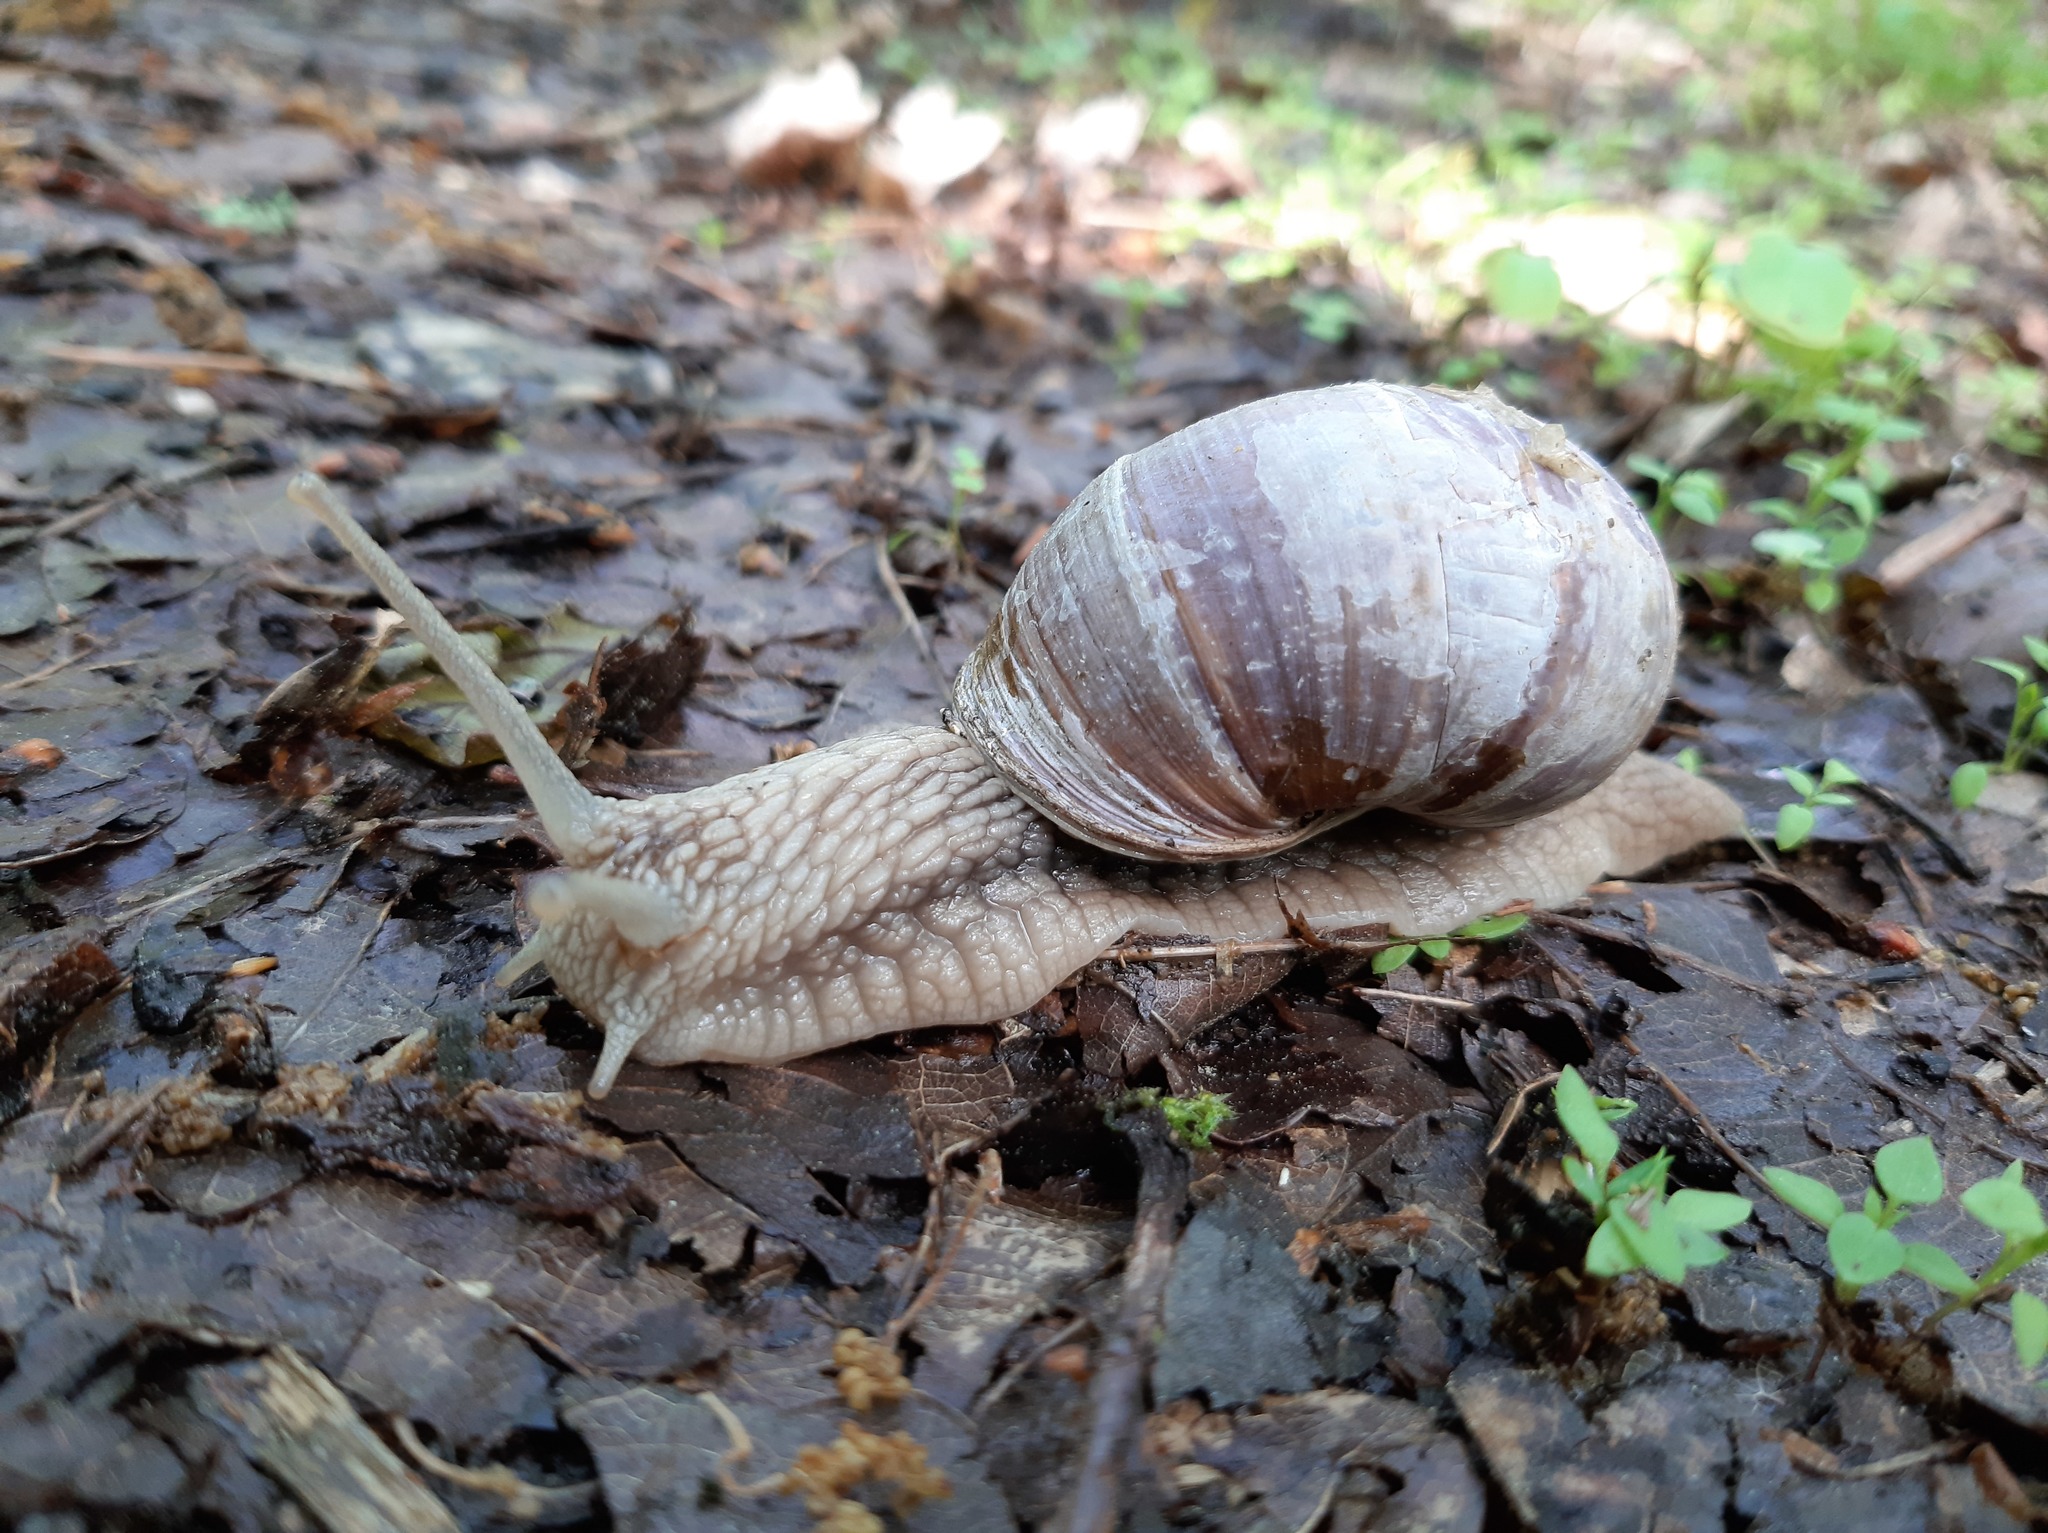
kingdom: Animalia
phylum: Mollusca
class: Gastropoda
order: Stylommatophora
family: Helicidae
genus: Helix
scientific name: Helix pomatia
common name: Roman snail
